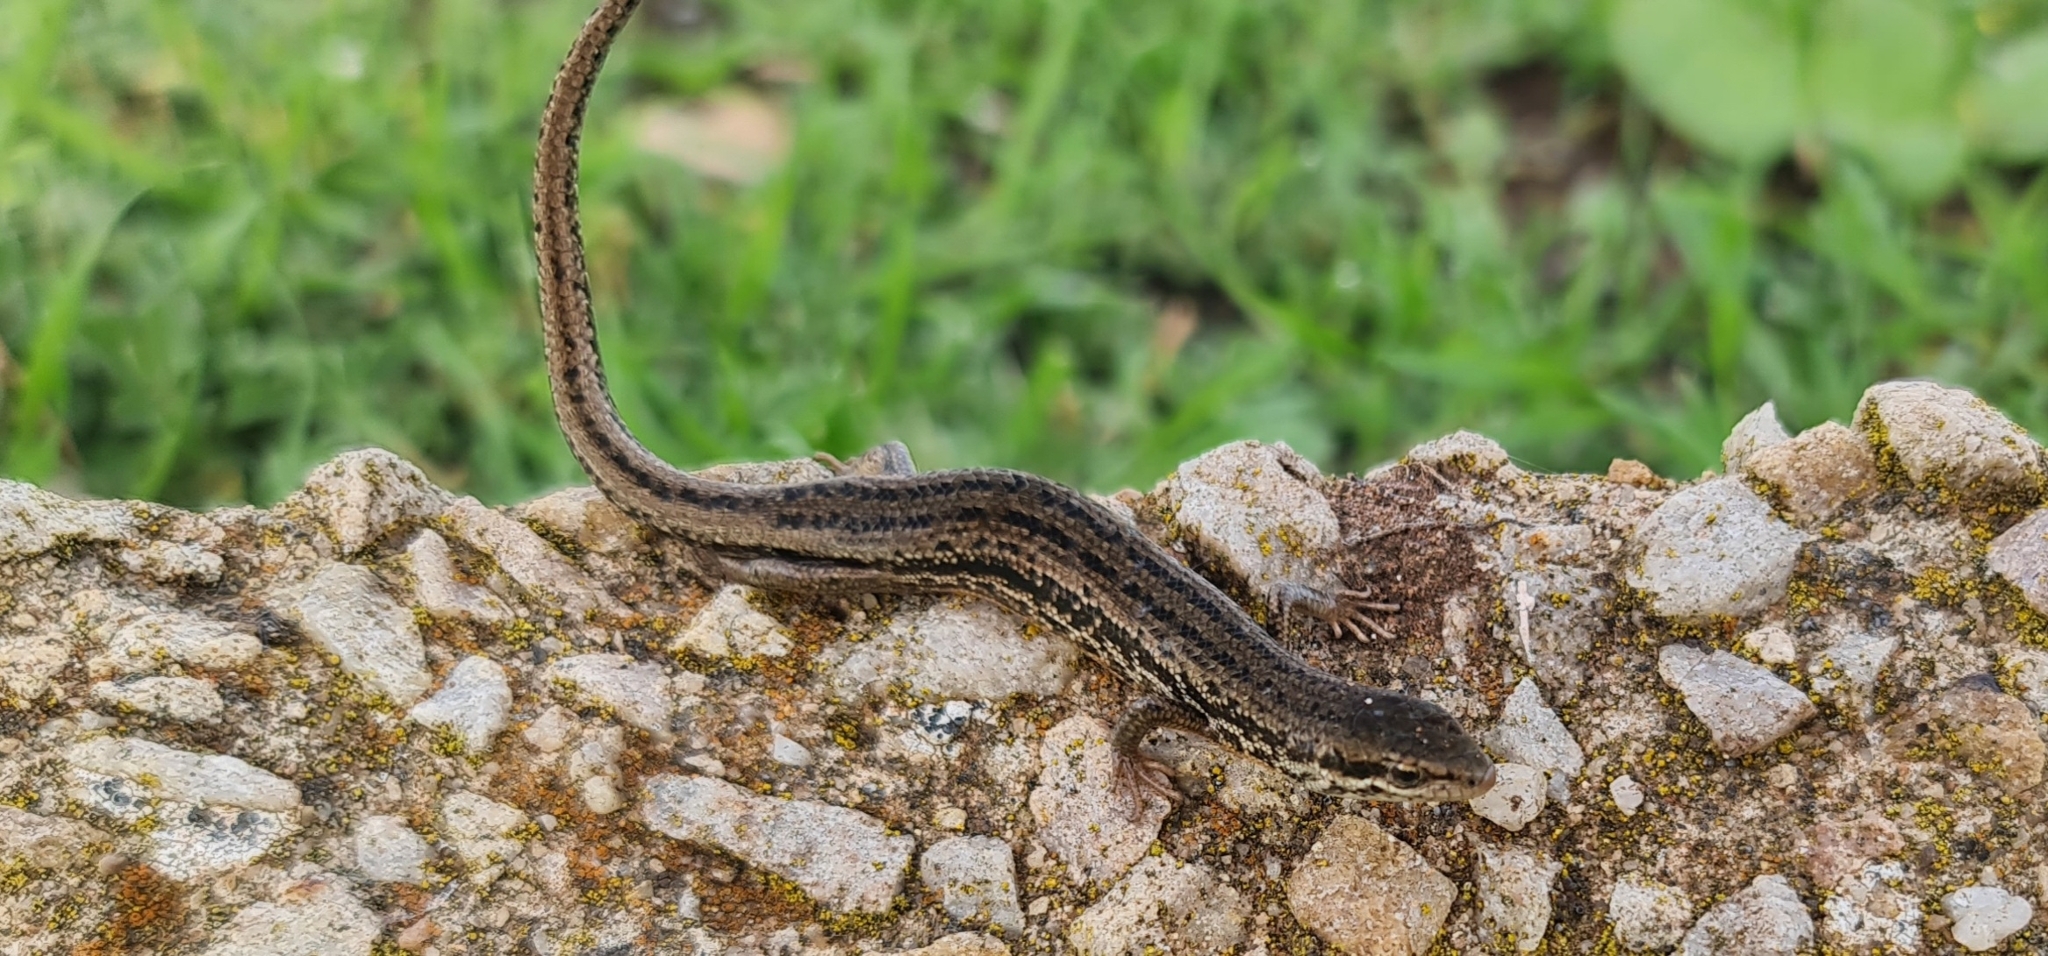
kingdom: Animalia
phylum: Chordata
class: Squamata
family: Scincidae
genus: Morethia
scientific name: Morethia adelaidensis
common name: Saltbush morethia skink
